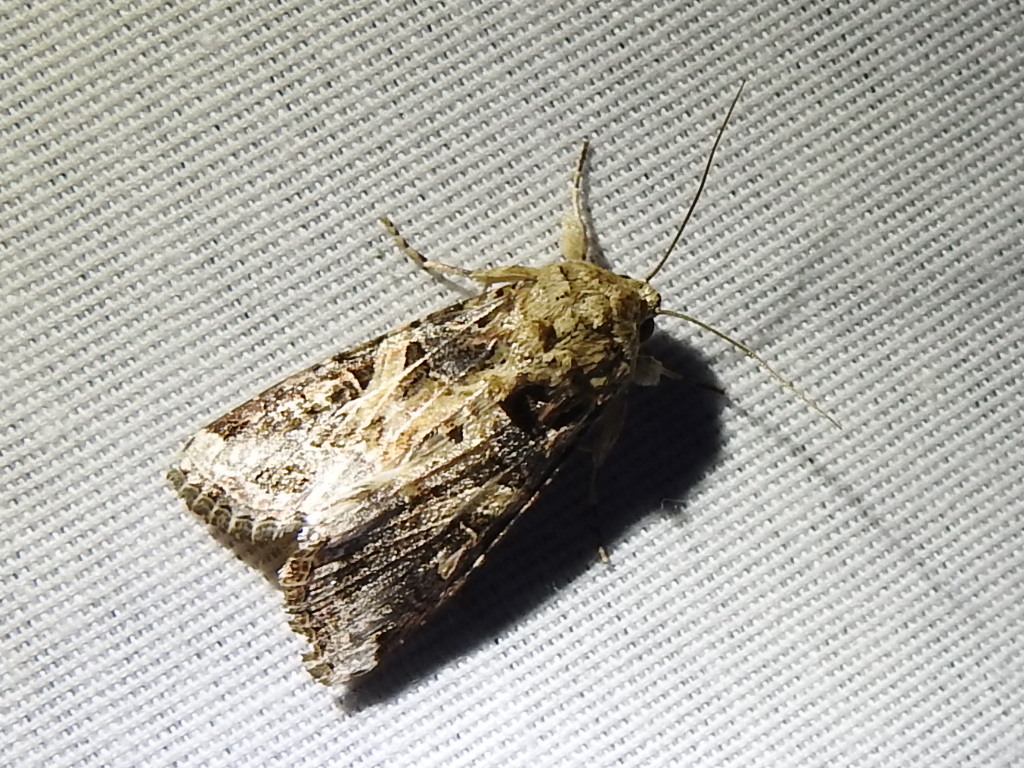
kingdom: Animalia
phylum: Arthropoda
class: Insecta
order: Lepidoptera
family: Noctuidae
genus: Spodoptera
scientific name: Spodoptera ornithogalli
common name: Yellow-striped armyworm
